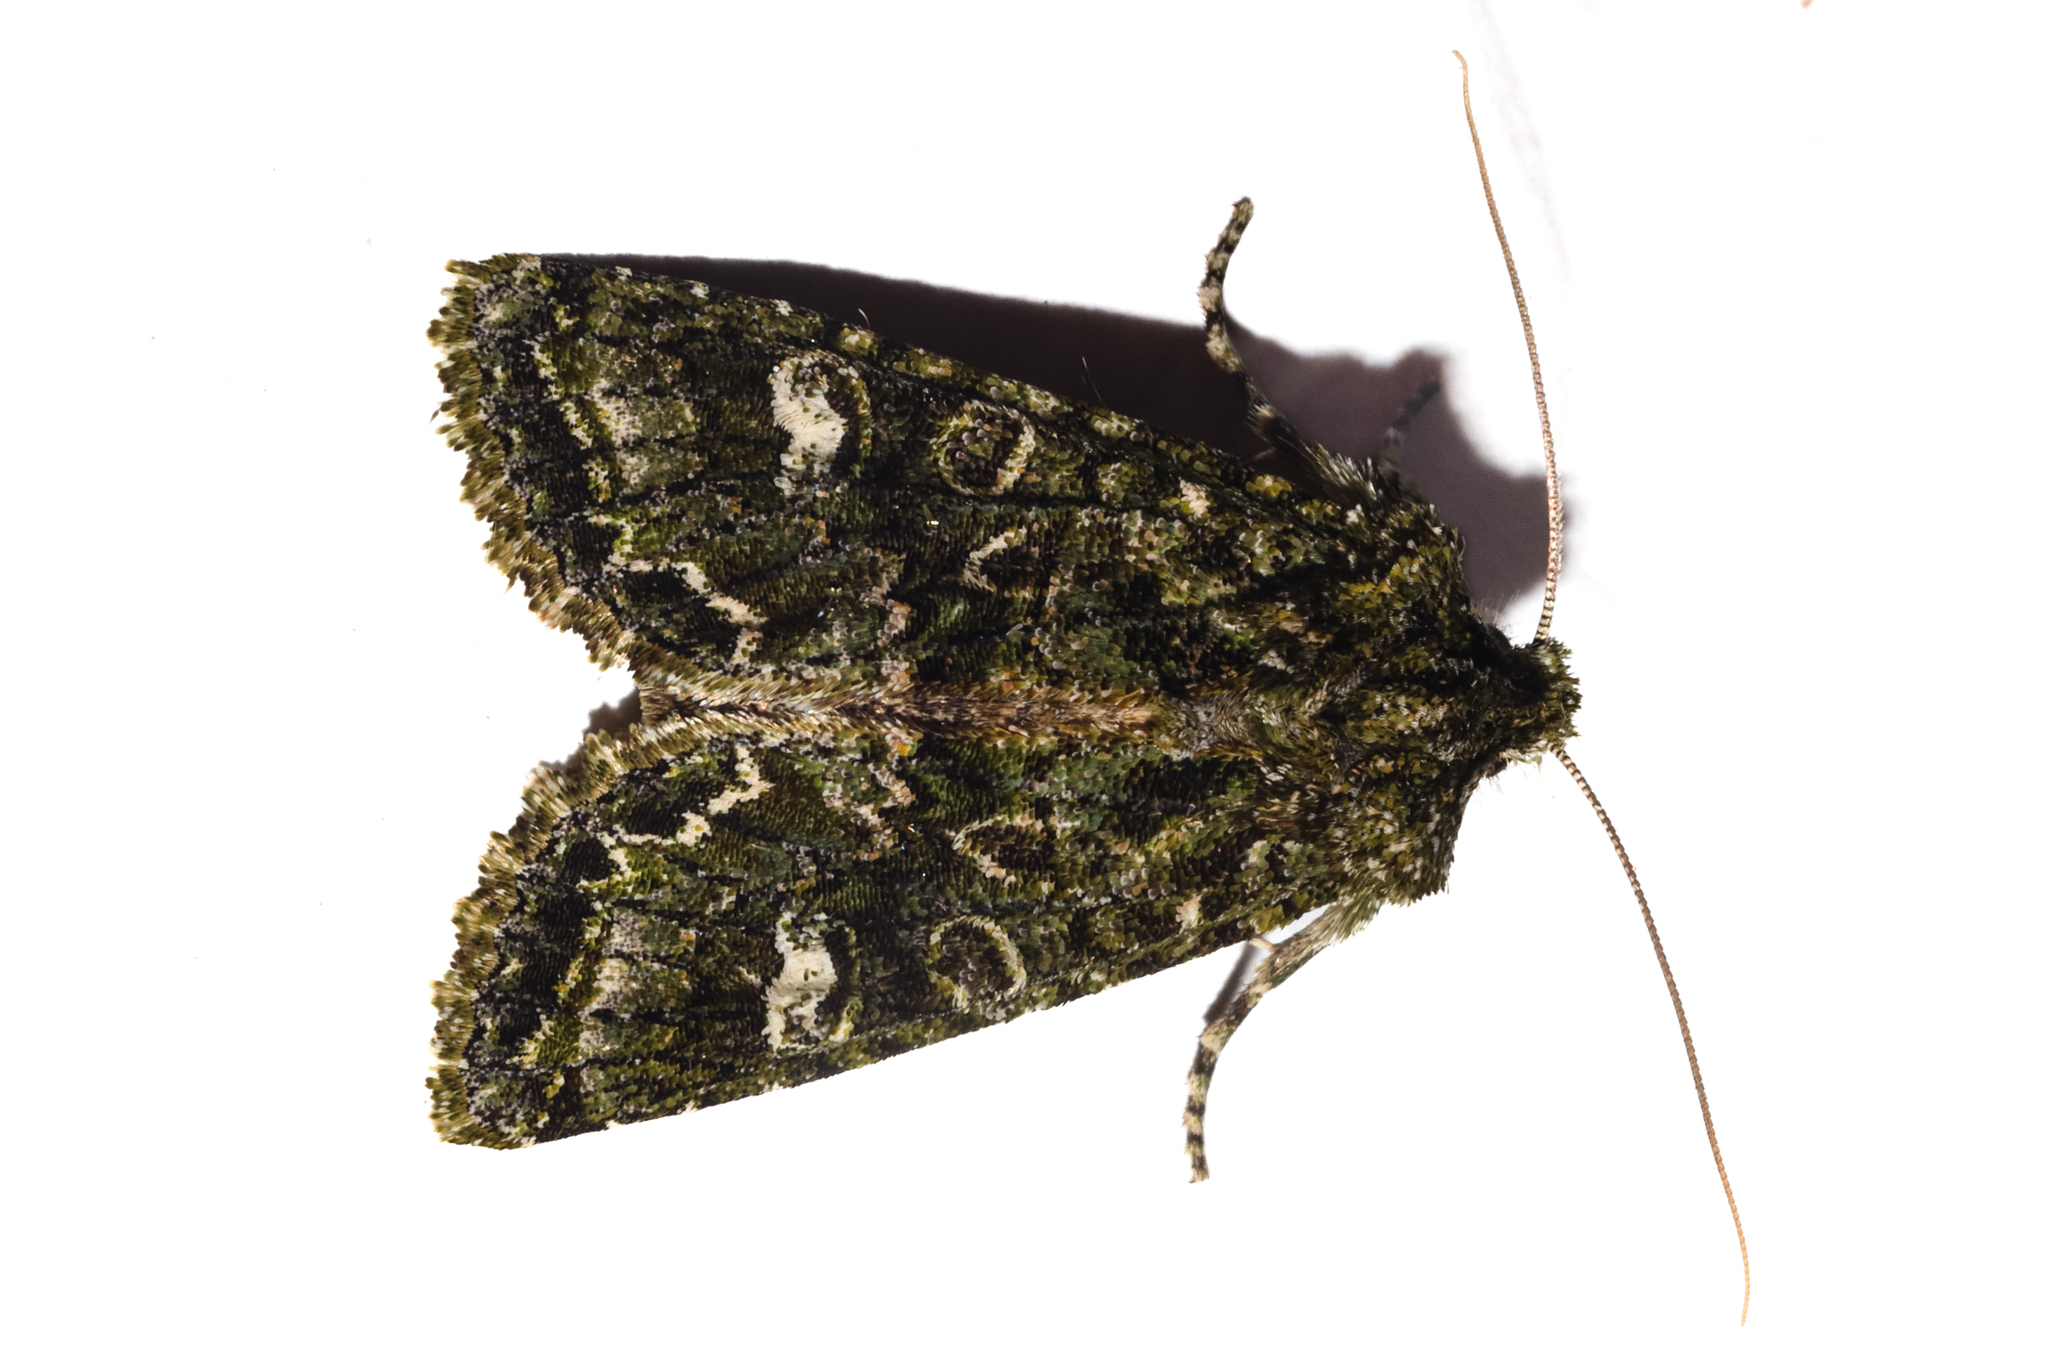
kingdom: Animalia
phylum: Arthropoda
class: Insecta
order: Lepidoptera
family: Noctuidae
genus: Ichneutica
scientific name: Ichneutica
